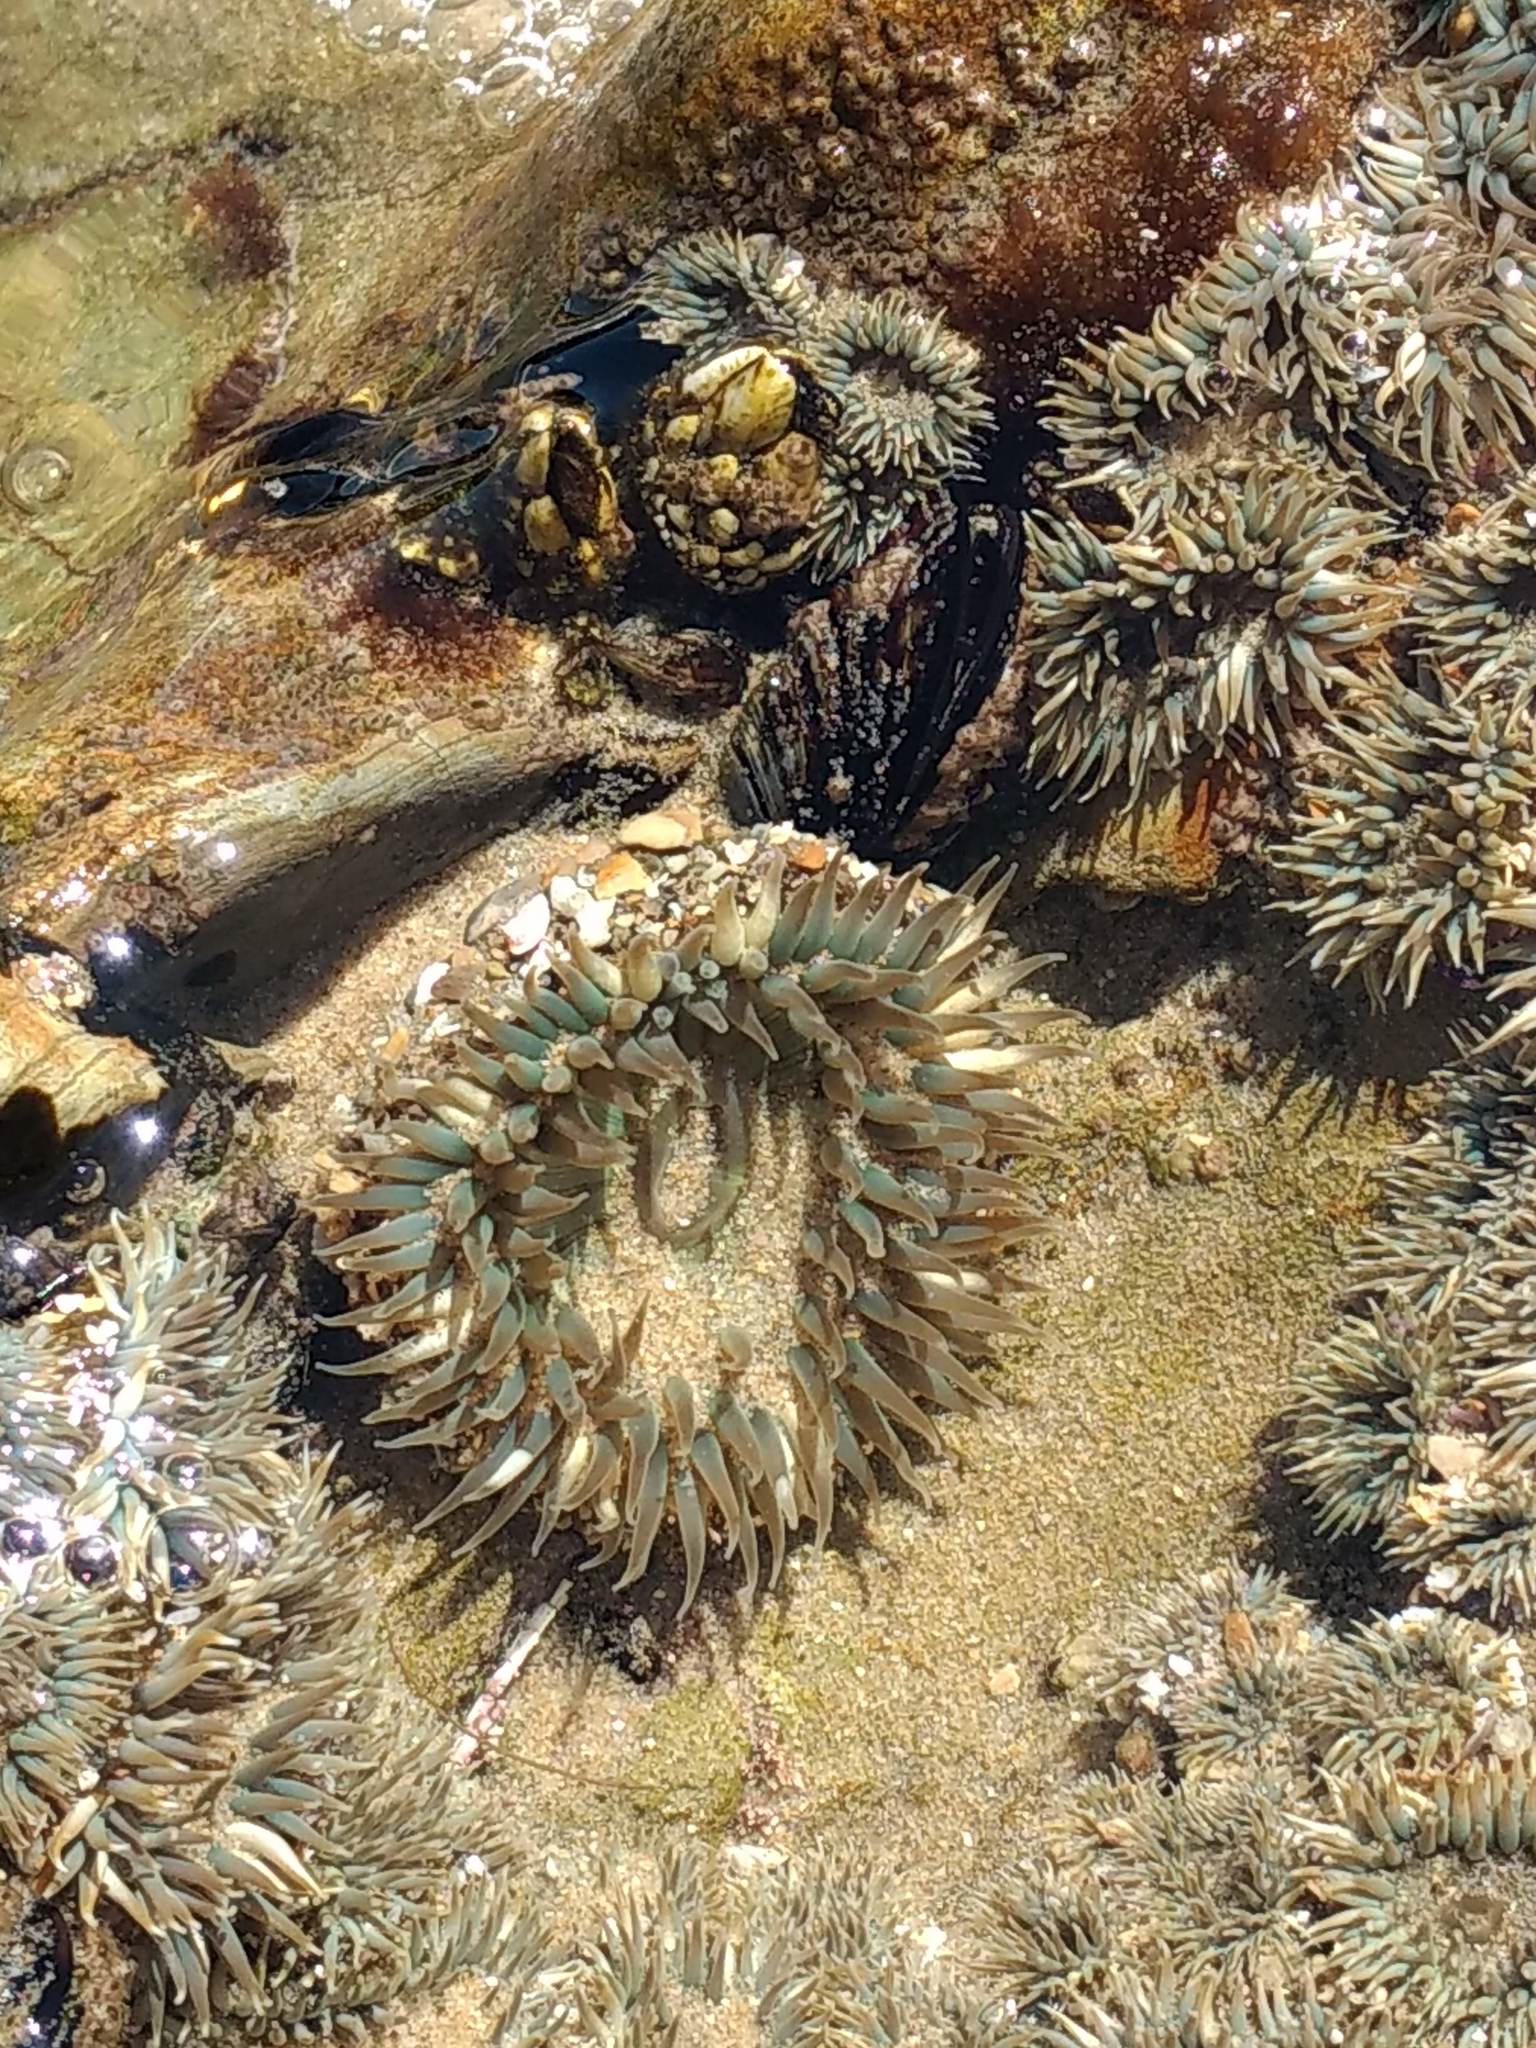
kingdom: Animalia
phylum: Cnidaria
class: Anthozoa
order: Actiniaria
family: Actiniidae
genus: Anthopleura
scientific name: Anthopleura elegantissima
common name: Clonal anemone
